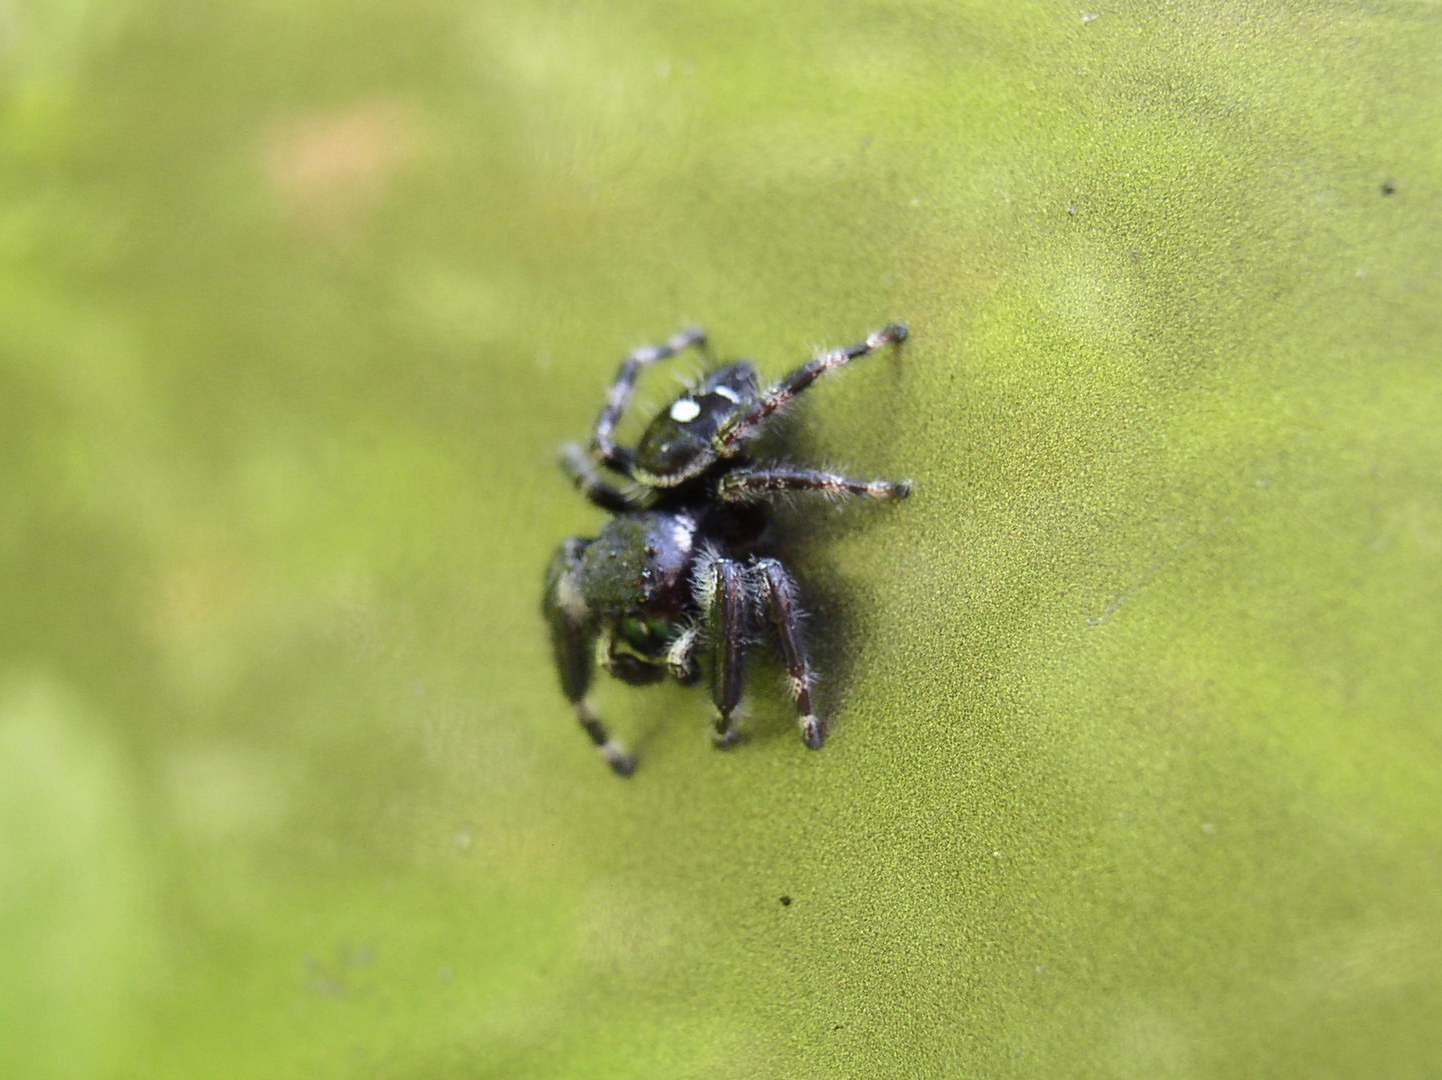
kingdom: Animalia
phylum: Arthropoda
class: Arachnida
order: Araneae
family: Salticidae
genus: Phidippus
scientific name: Phidippus audax
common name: Bold jumper
